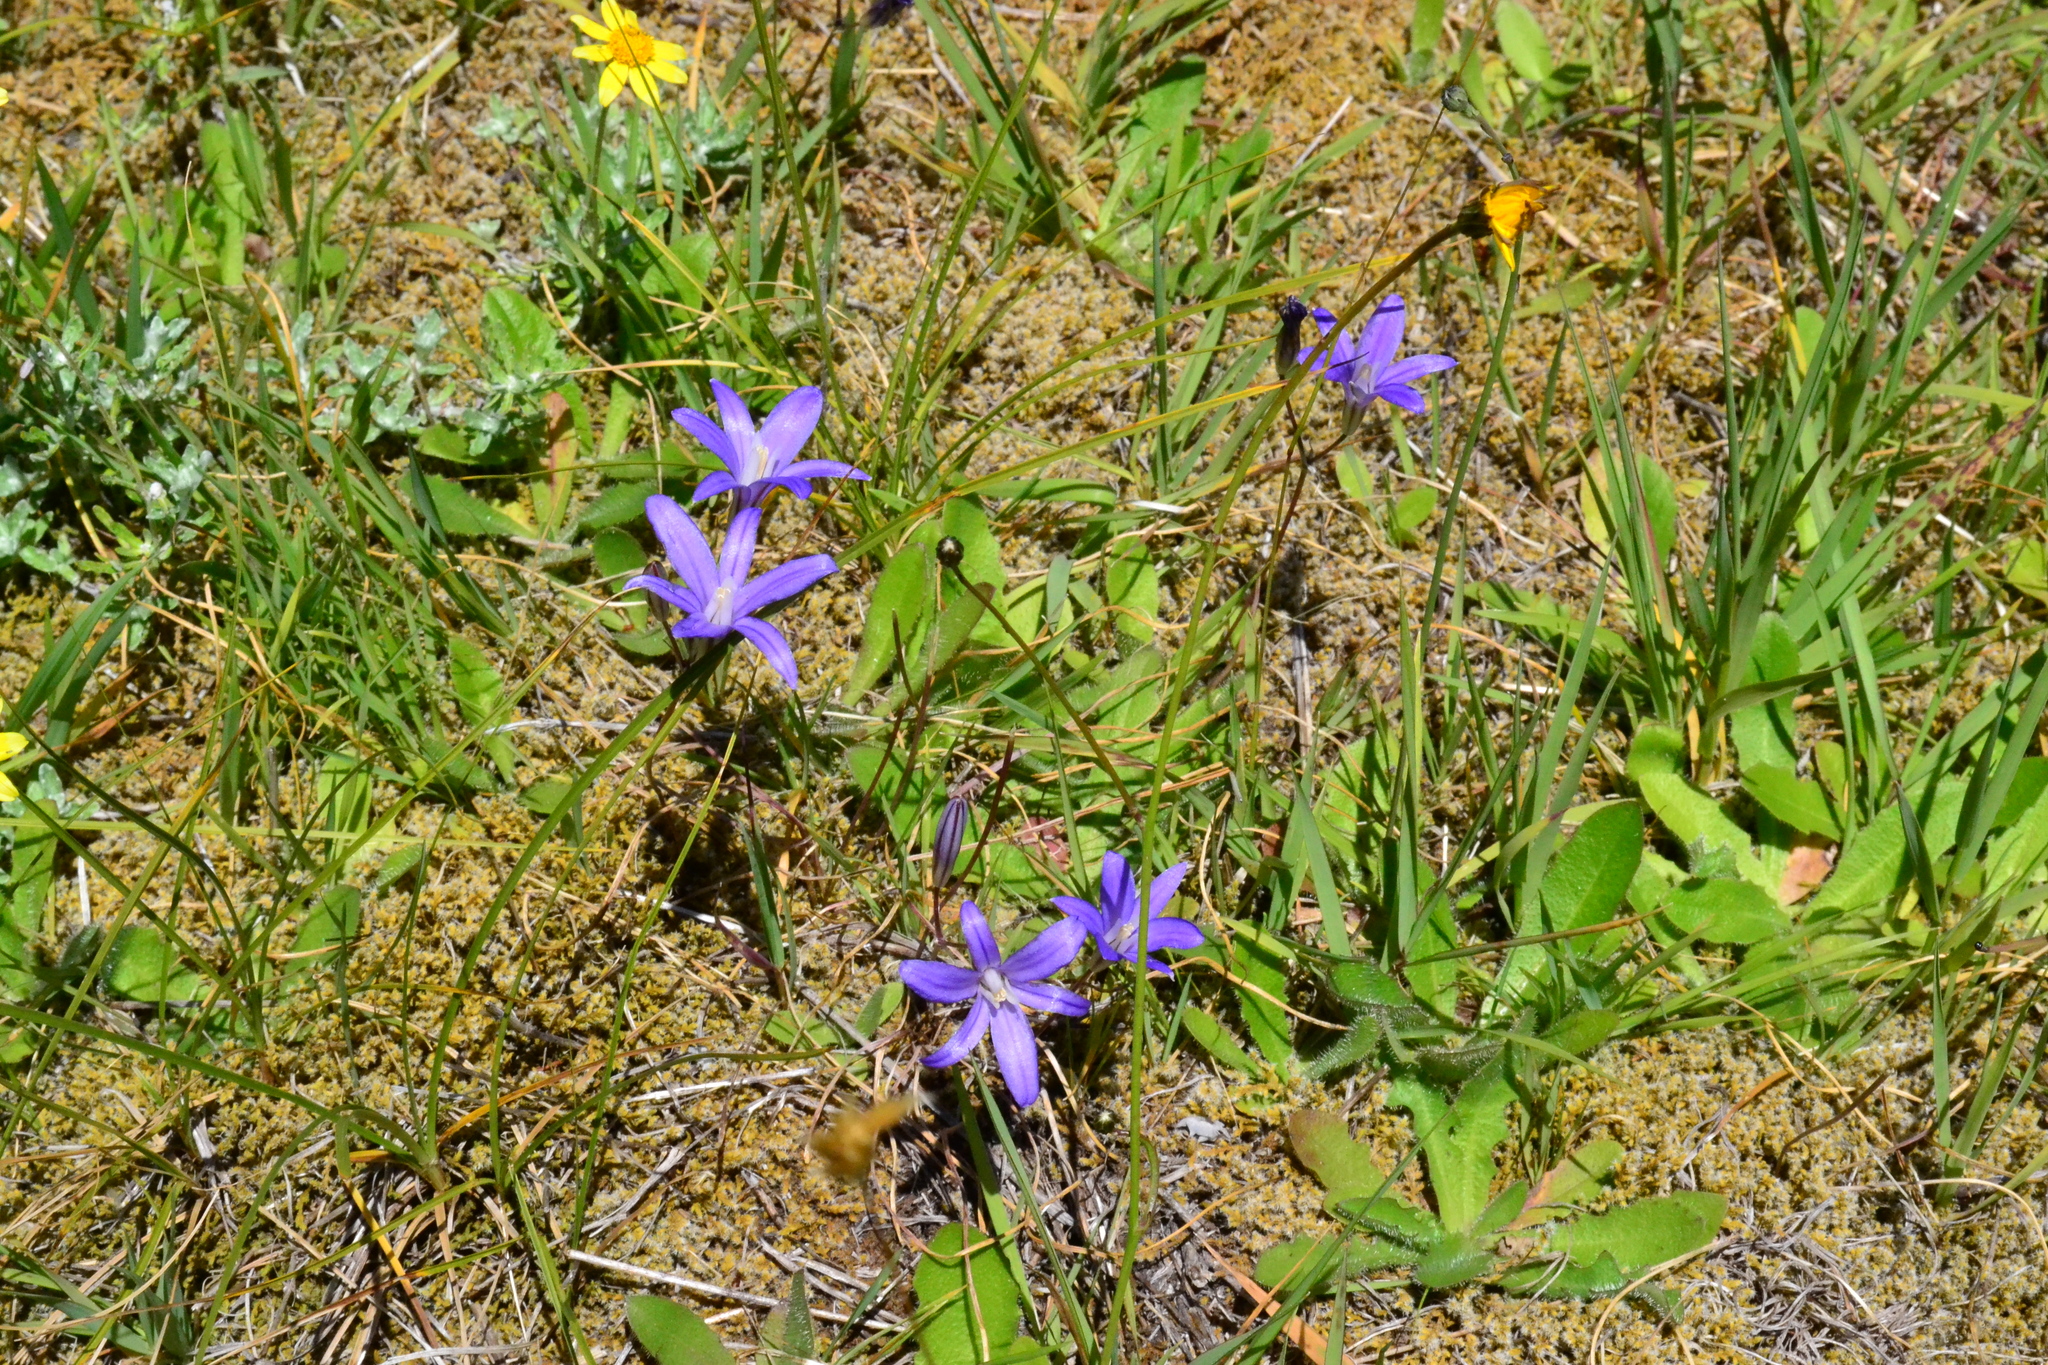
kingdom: Plantae
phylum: Tracheophyta
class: Liliopsida
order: Asparagales
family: Asparagaceae
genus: Brodiaea
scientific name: Brodiaea coronaria
